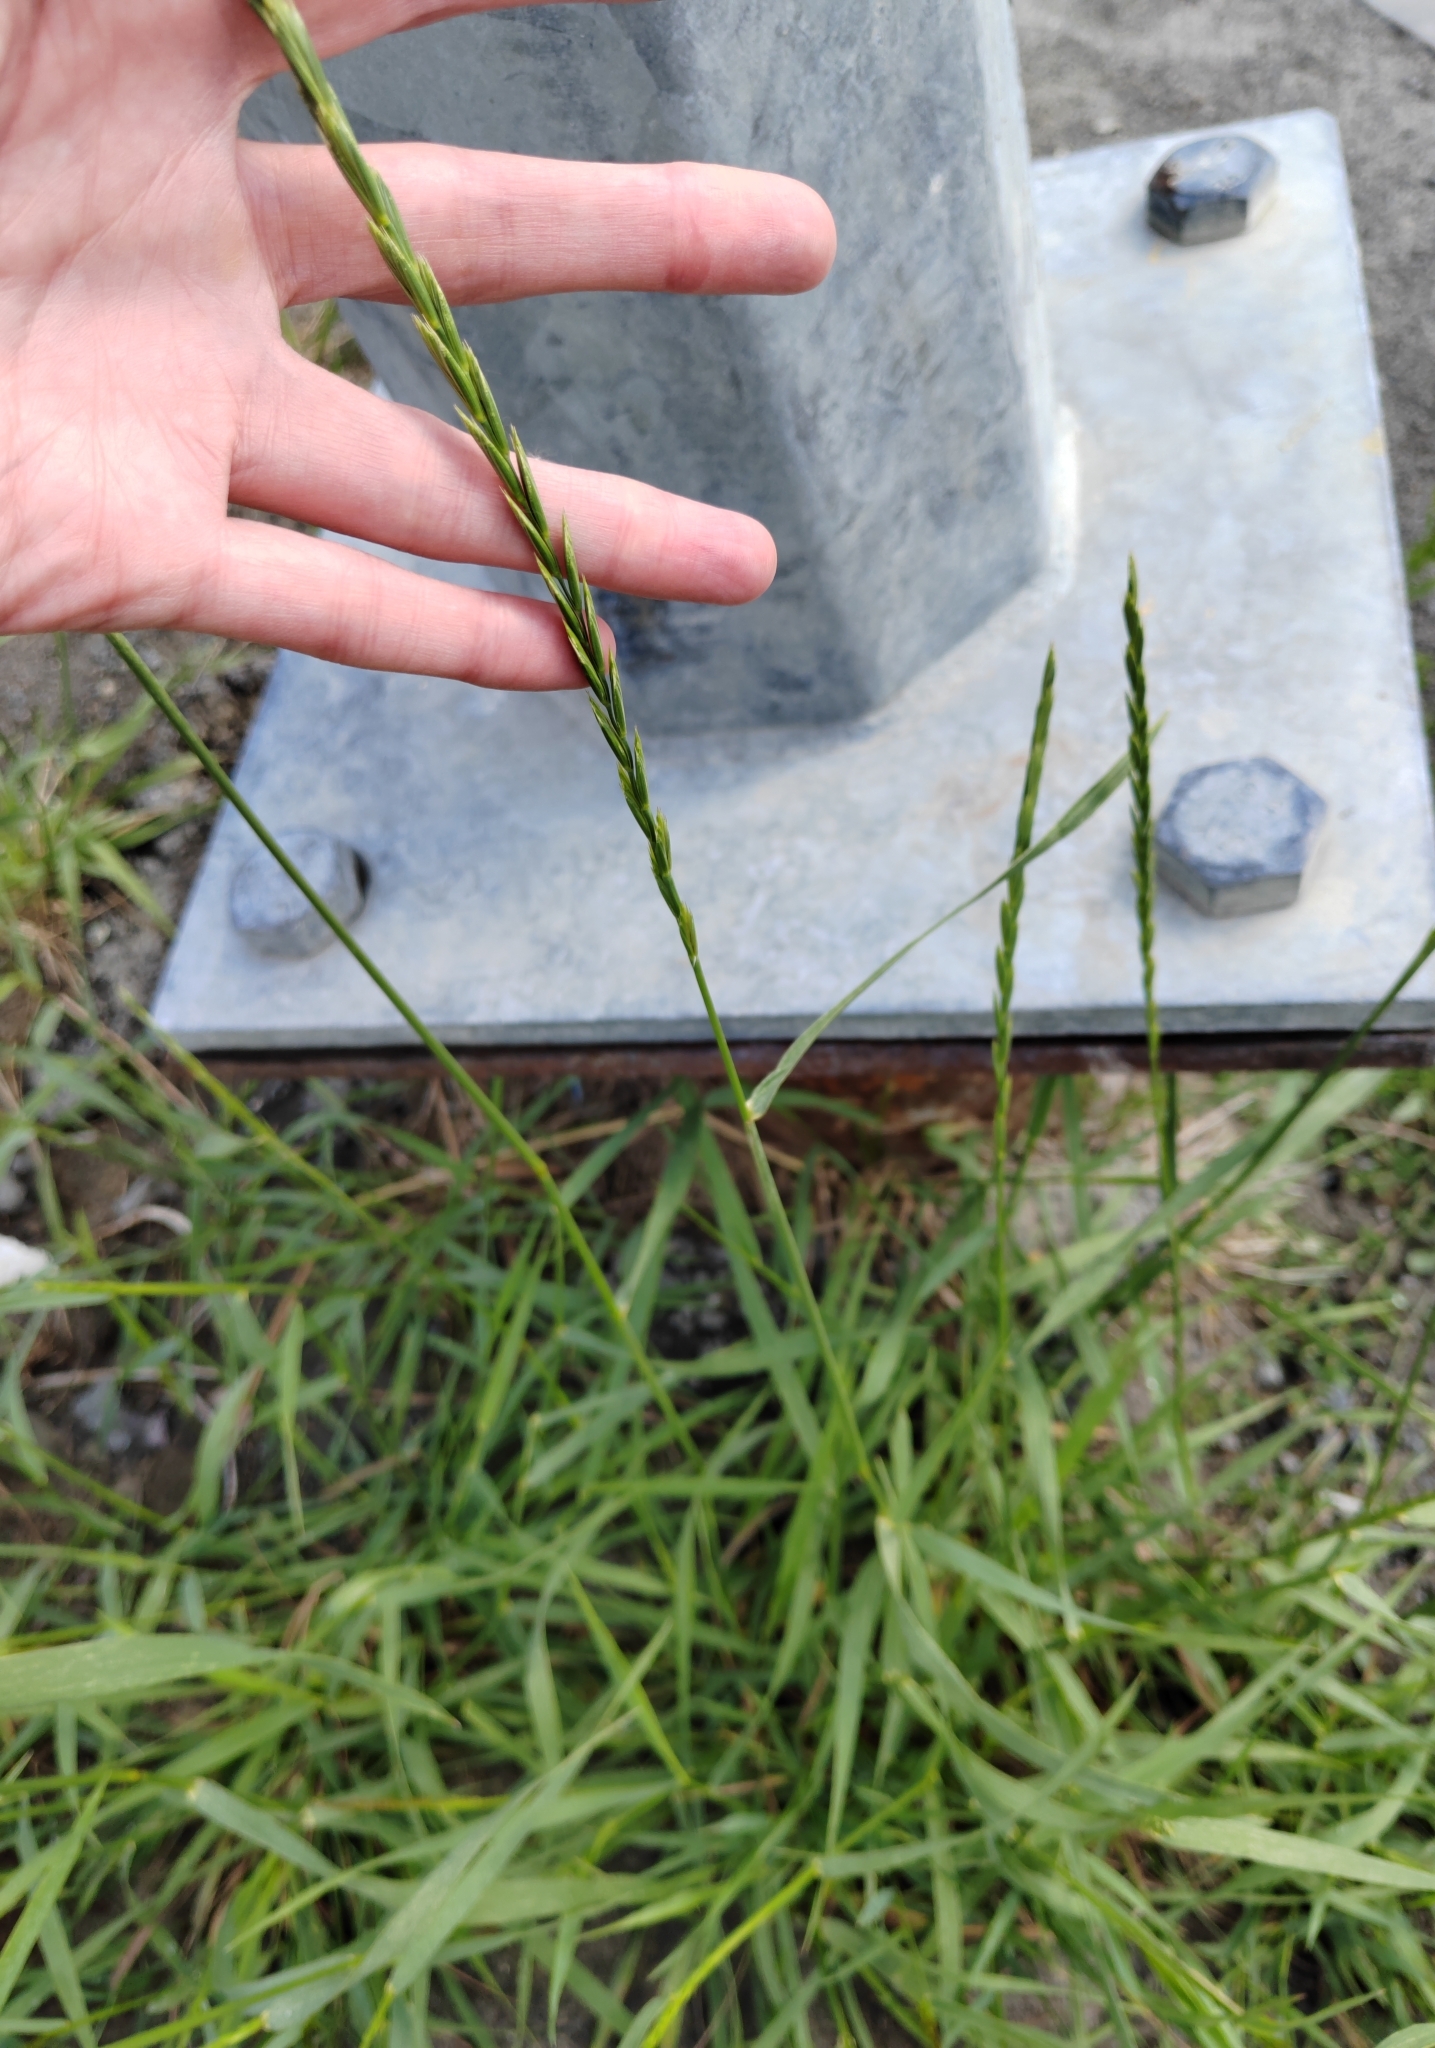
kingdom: Plantae
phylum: Tracheophyta
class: Liliopsida
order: Poales
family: Poaceae
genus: Elymus
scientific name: Elymus repens
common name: Quackgrass
